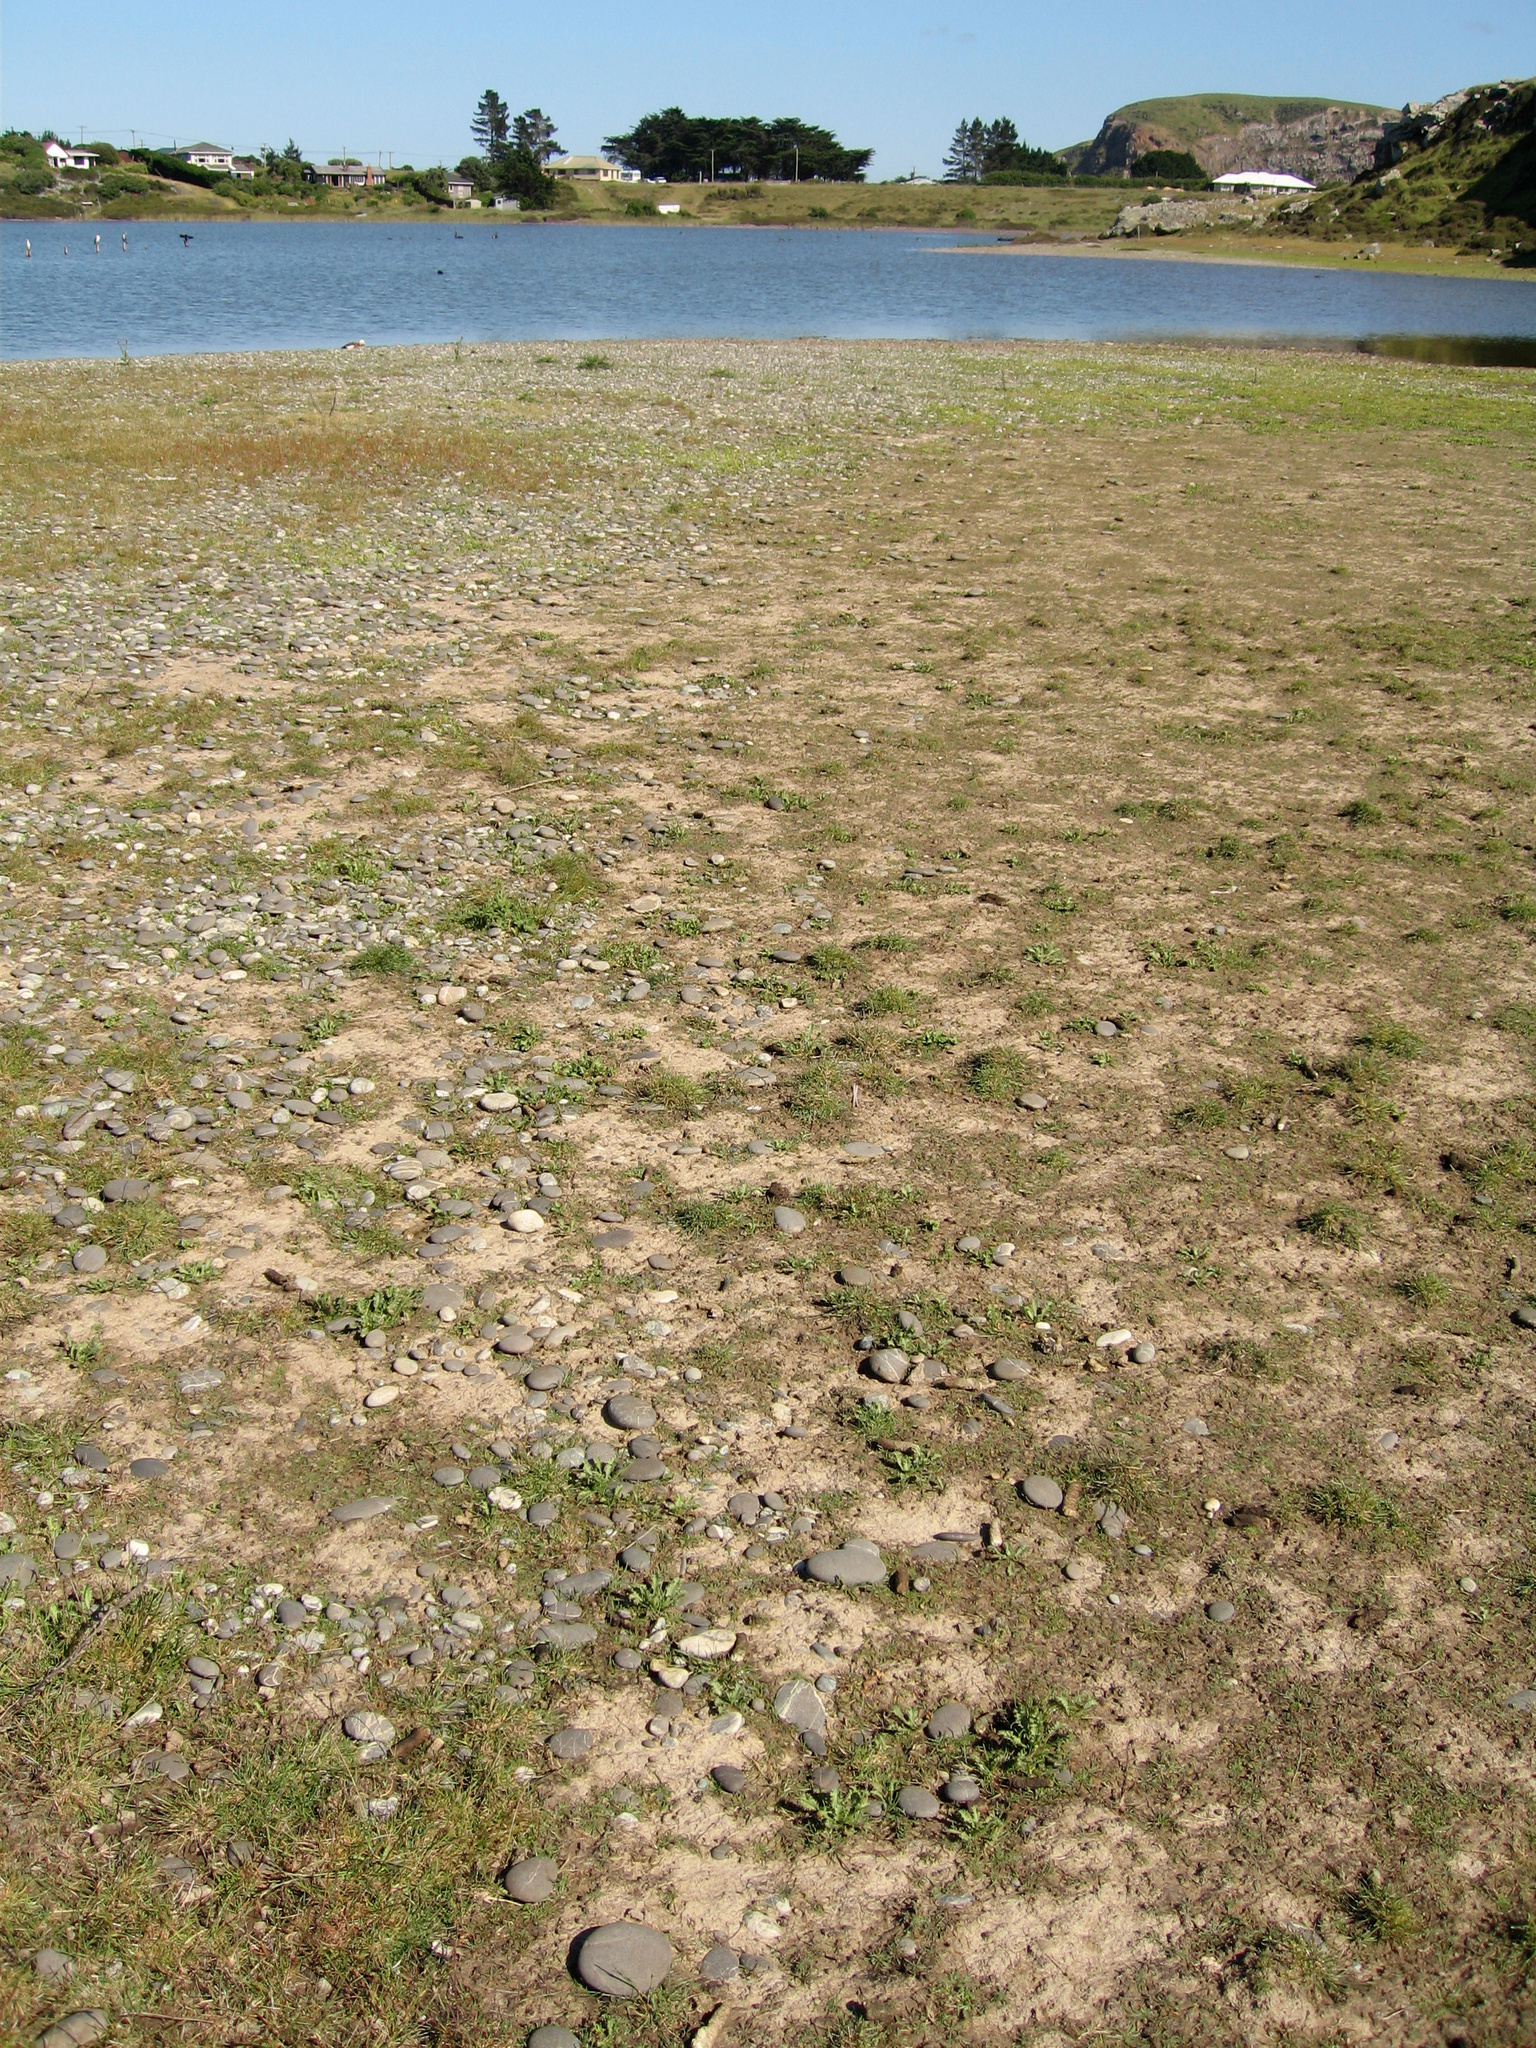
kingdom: Plantae
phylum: Tracheophyta
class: Magnoliopsida
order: Apiales
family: Apiaceae
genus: Eryngium
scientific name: Eryngium vesiculosum
